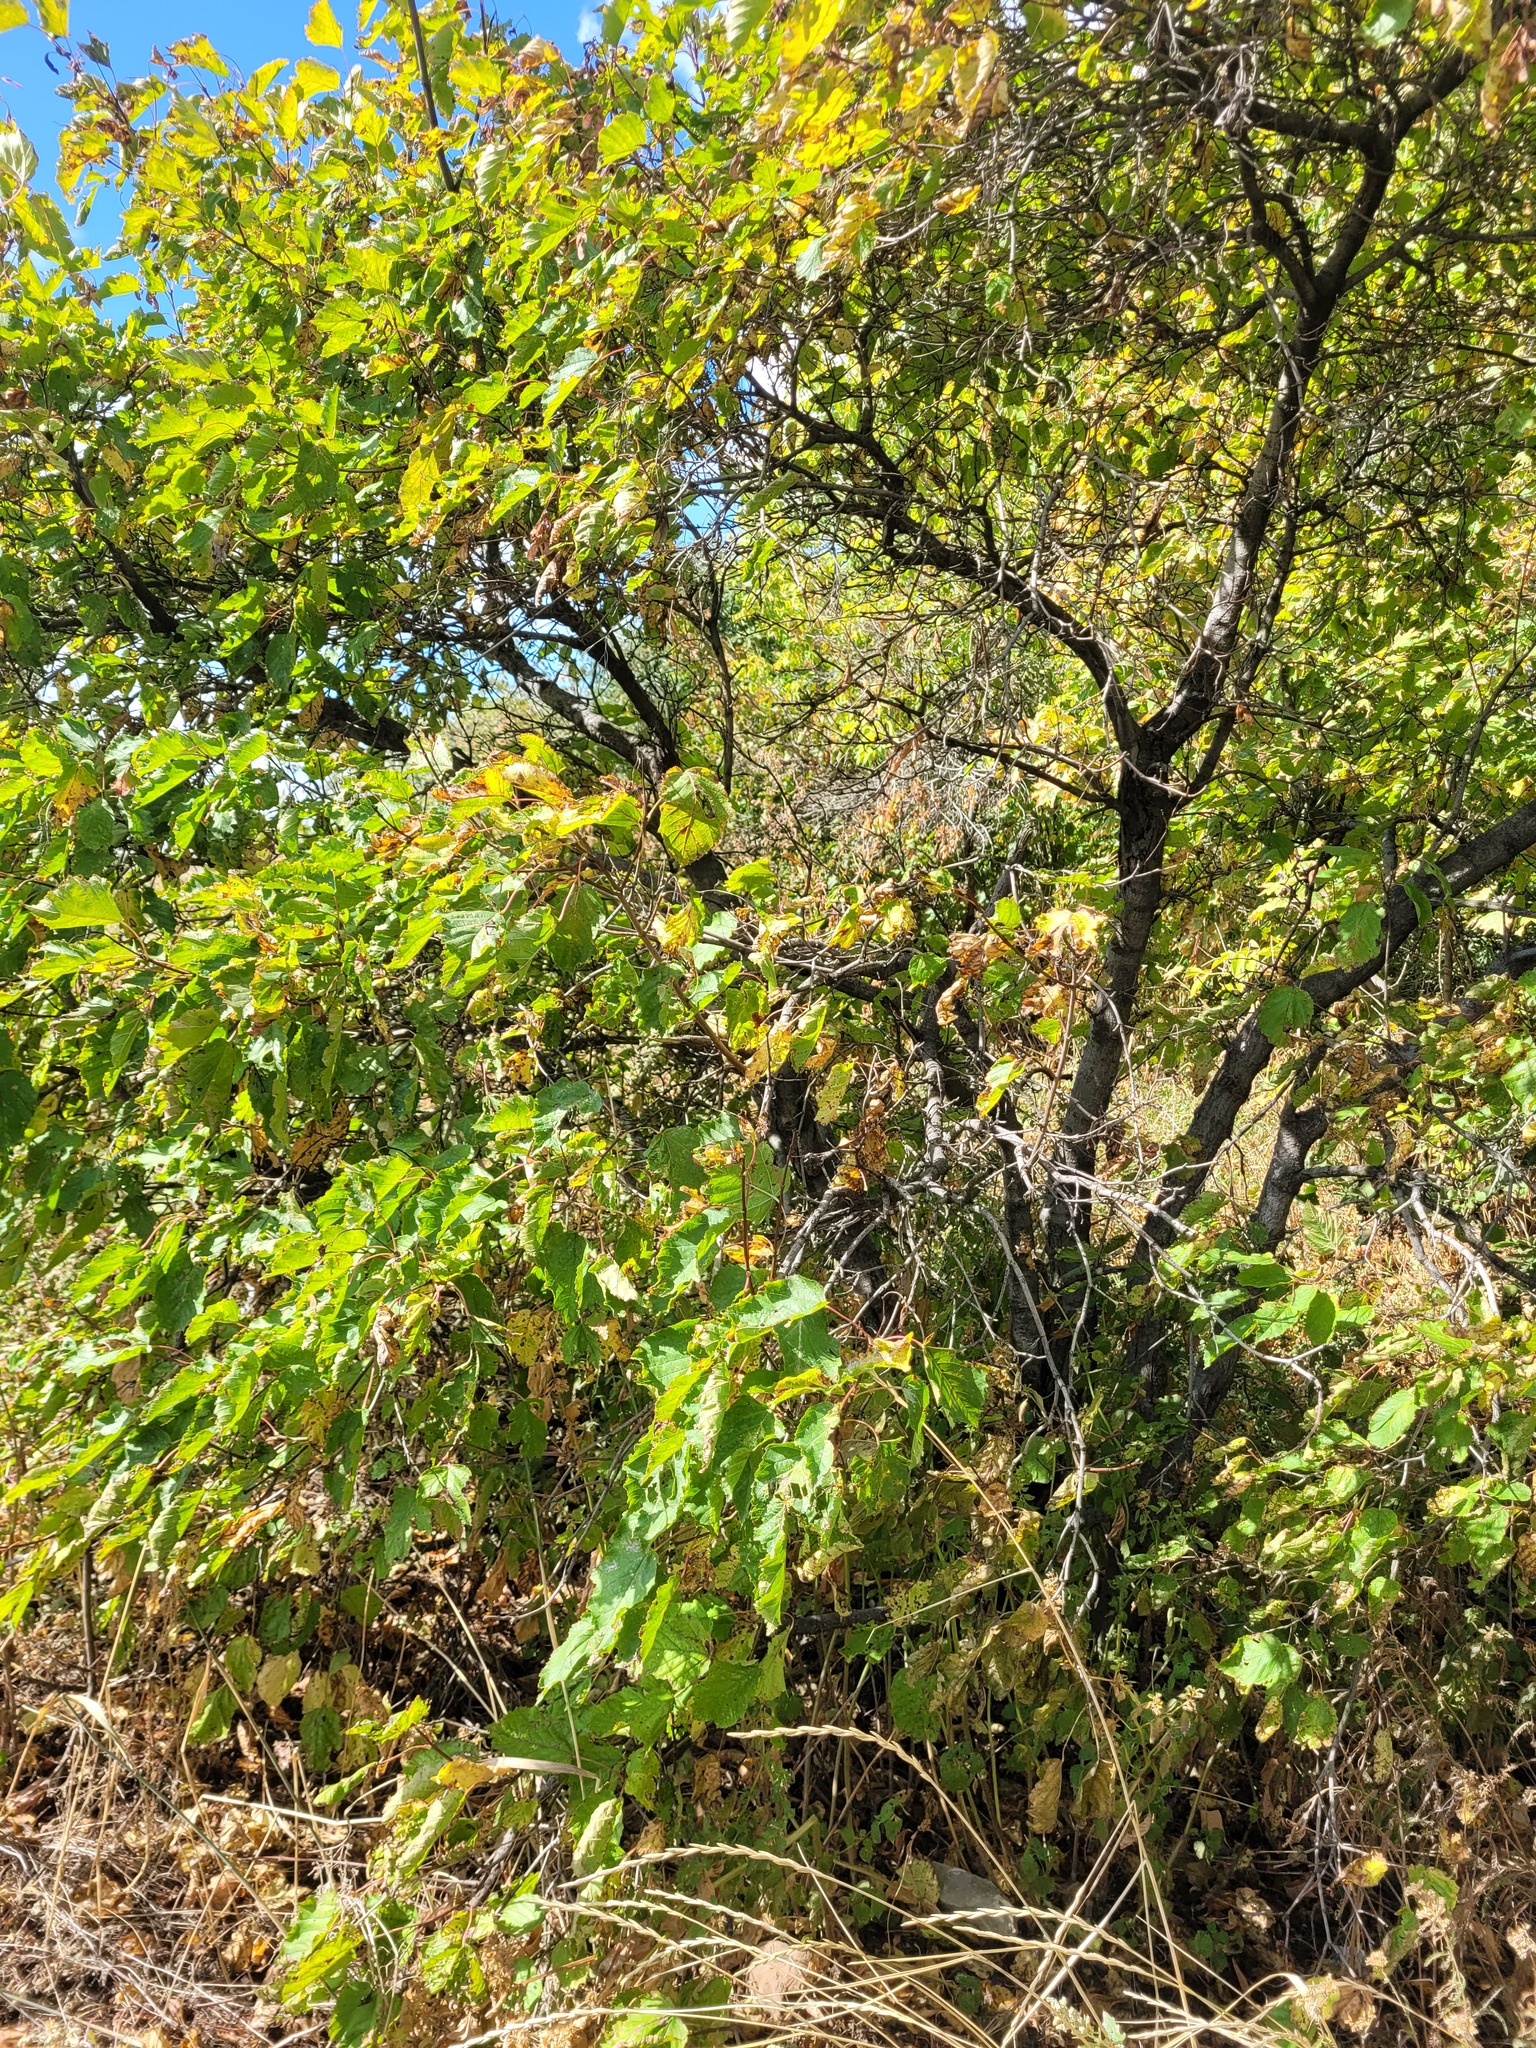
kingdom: Plantae
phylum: Tracheophyta
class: Magnoliopsida
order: Sapindales
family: Sapindaceae
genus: Acer
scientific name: Acer tataricum
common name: Tartar maple
